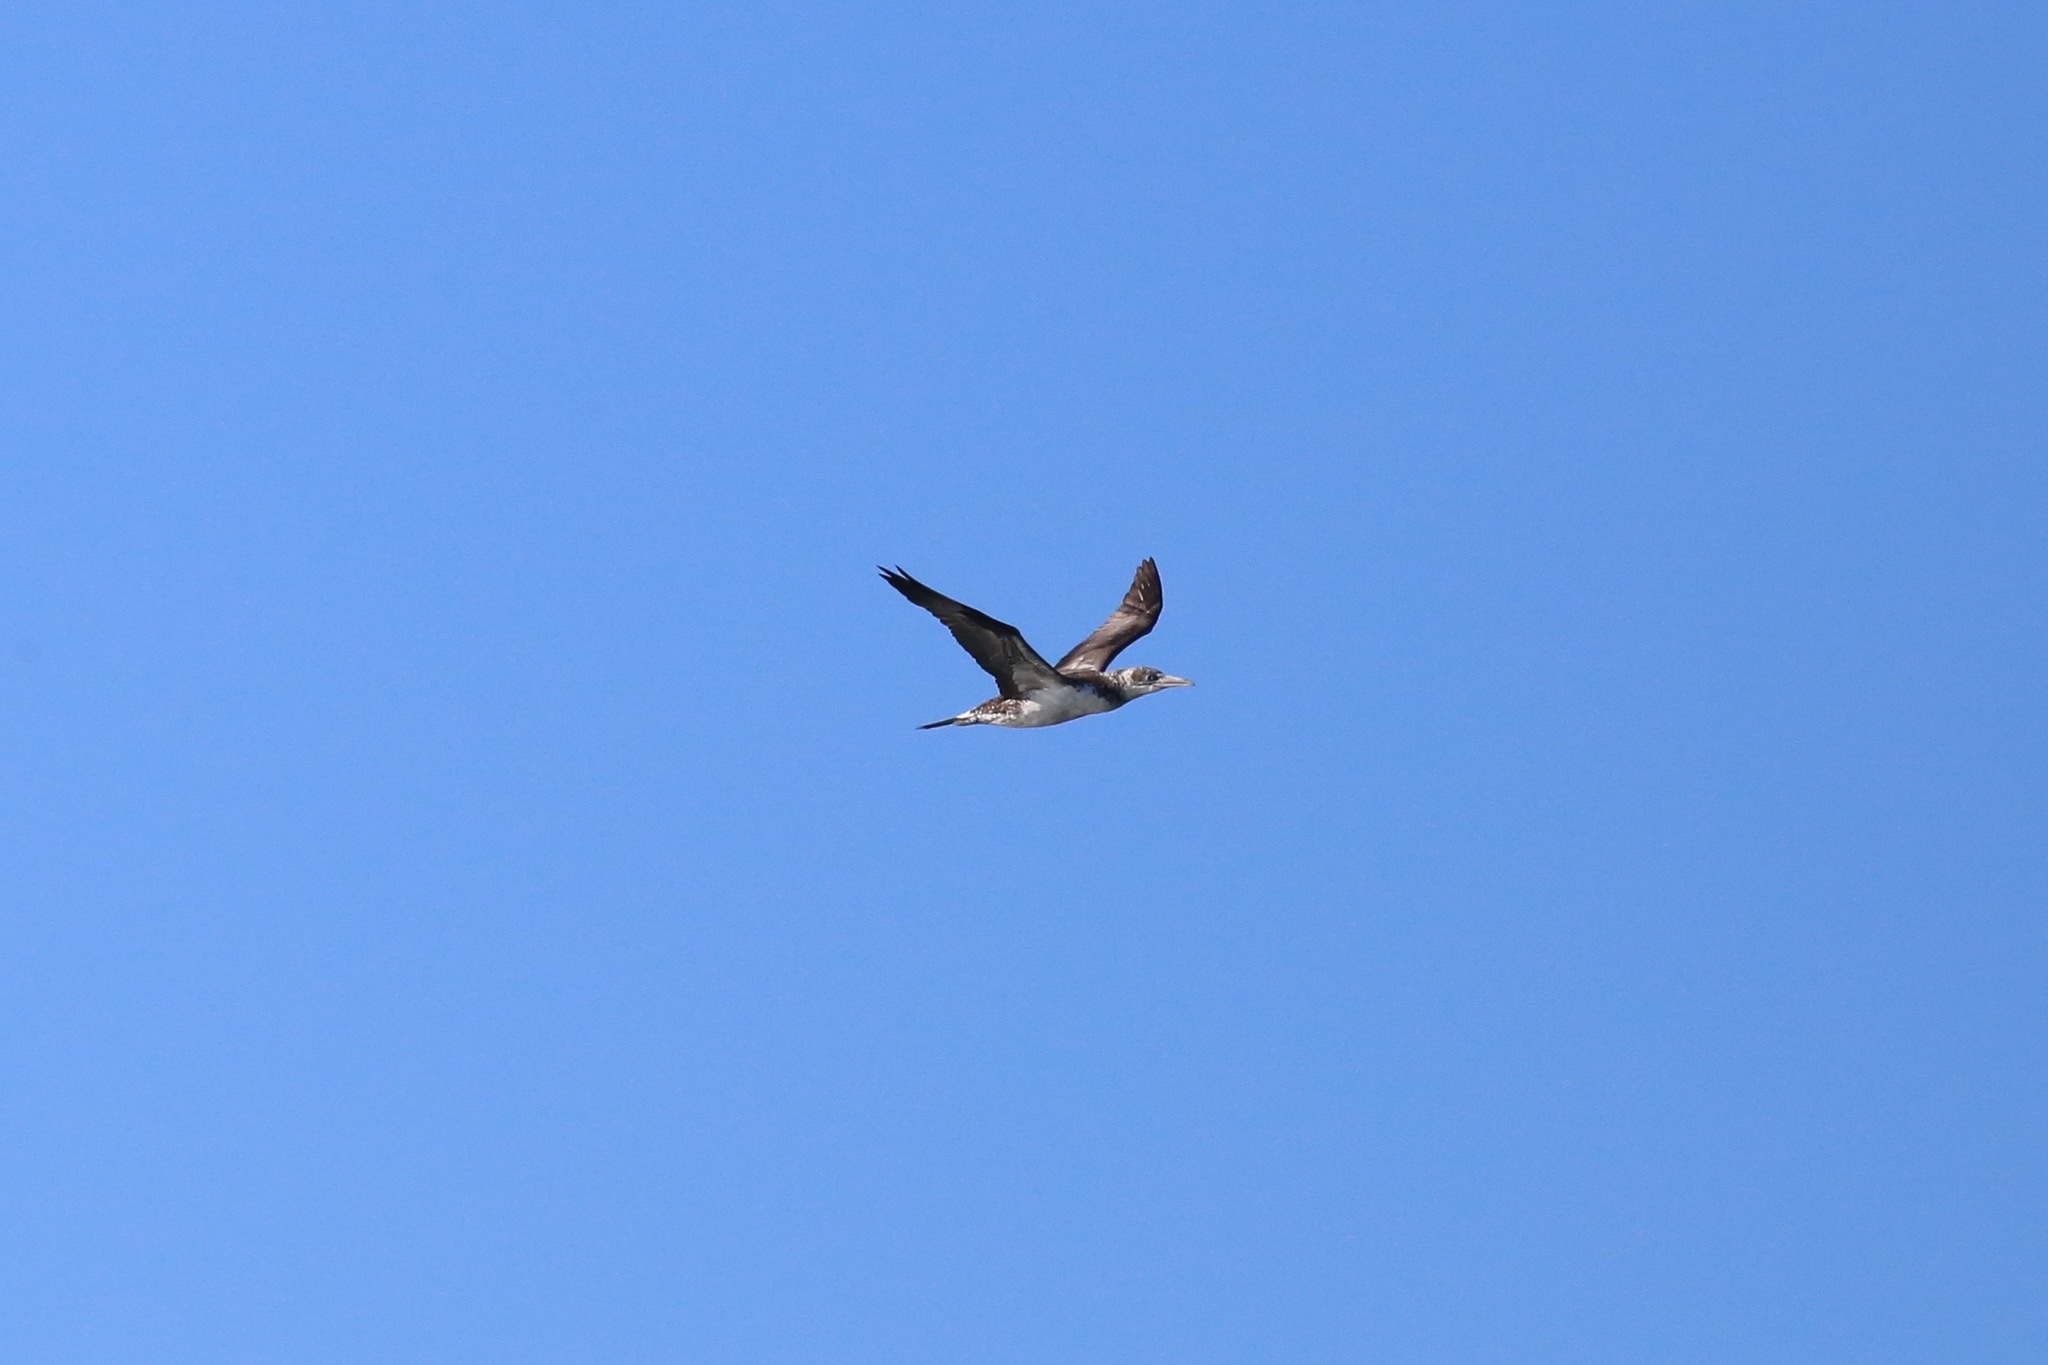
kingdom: Animalia
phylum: Chordata
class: Aves
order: Suliformes
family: Sulidae
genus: Morus
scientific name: Morus bassanus
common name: Northern gannet
